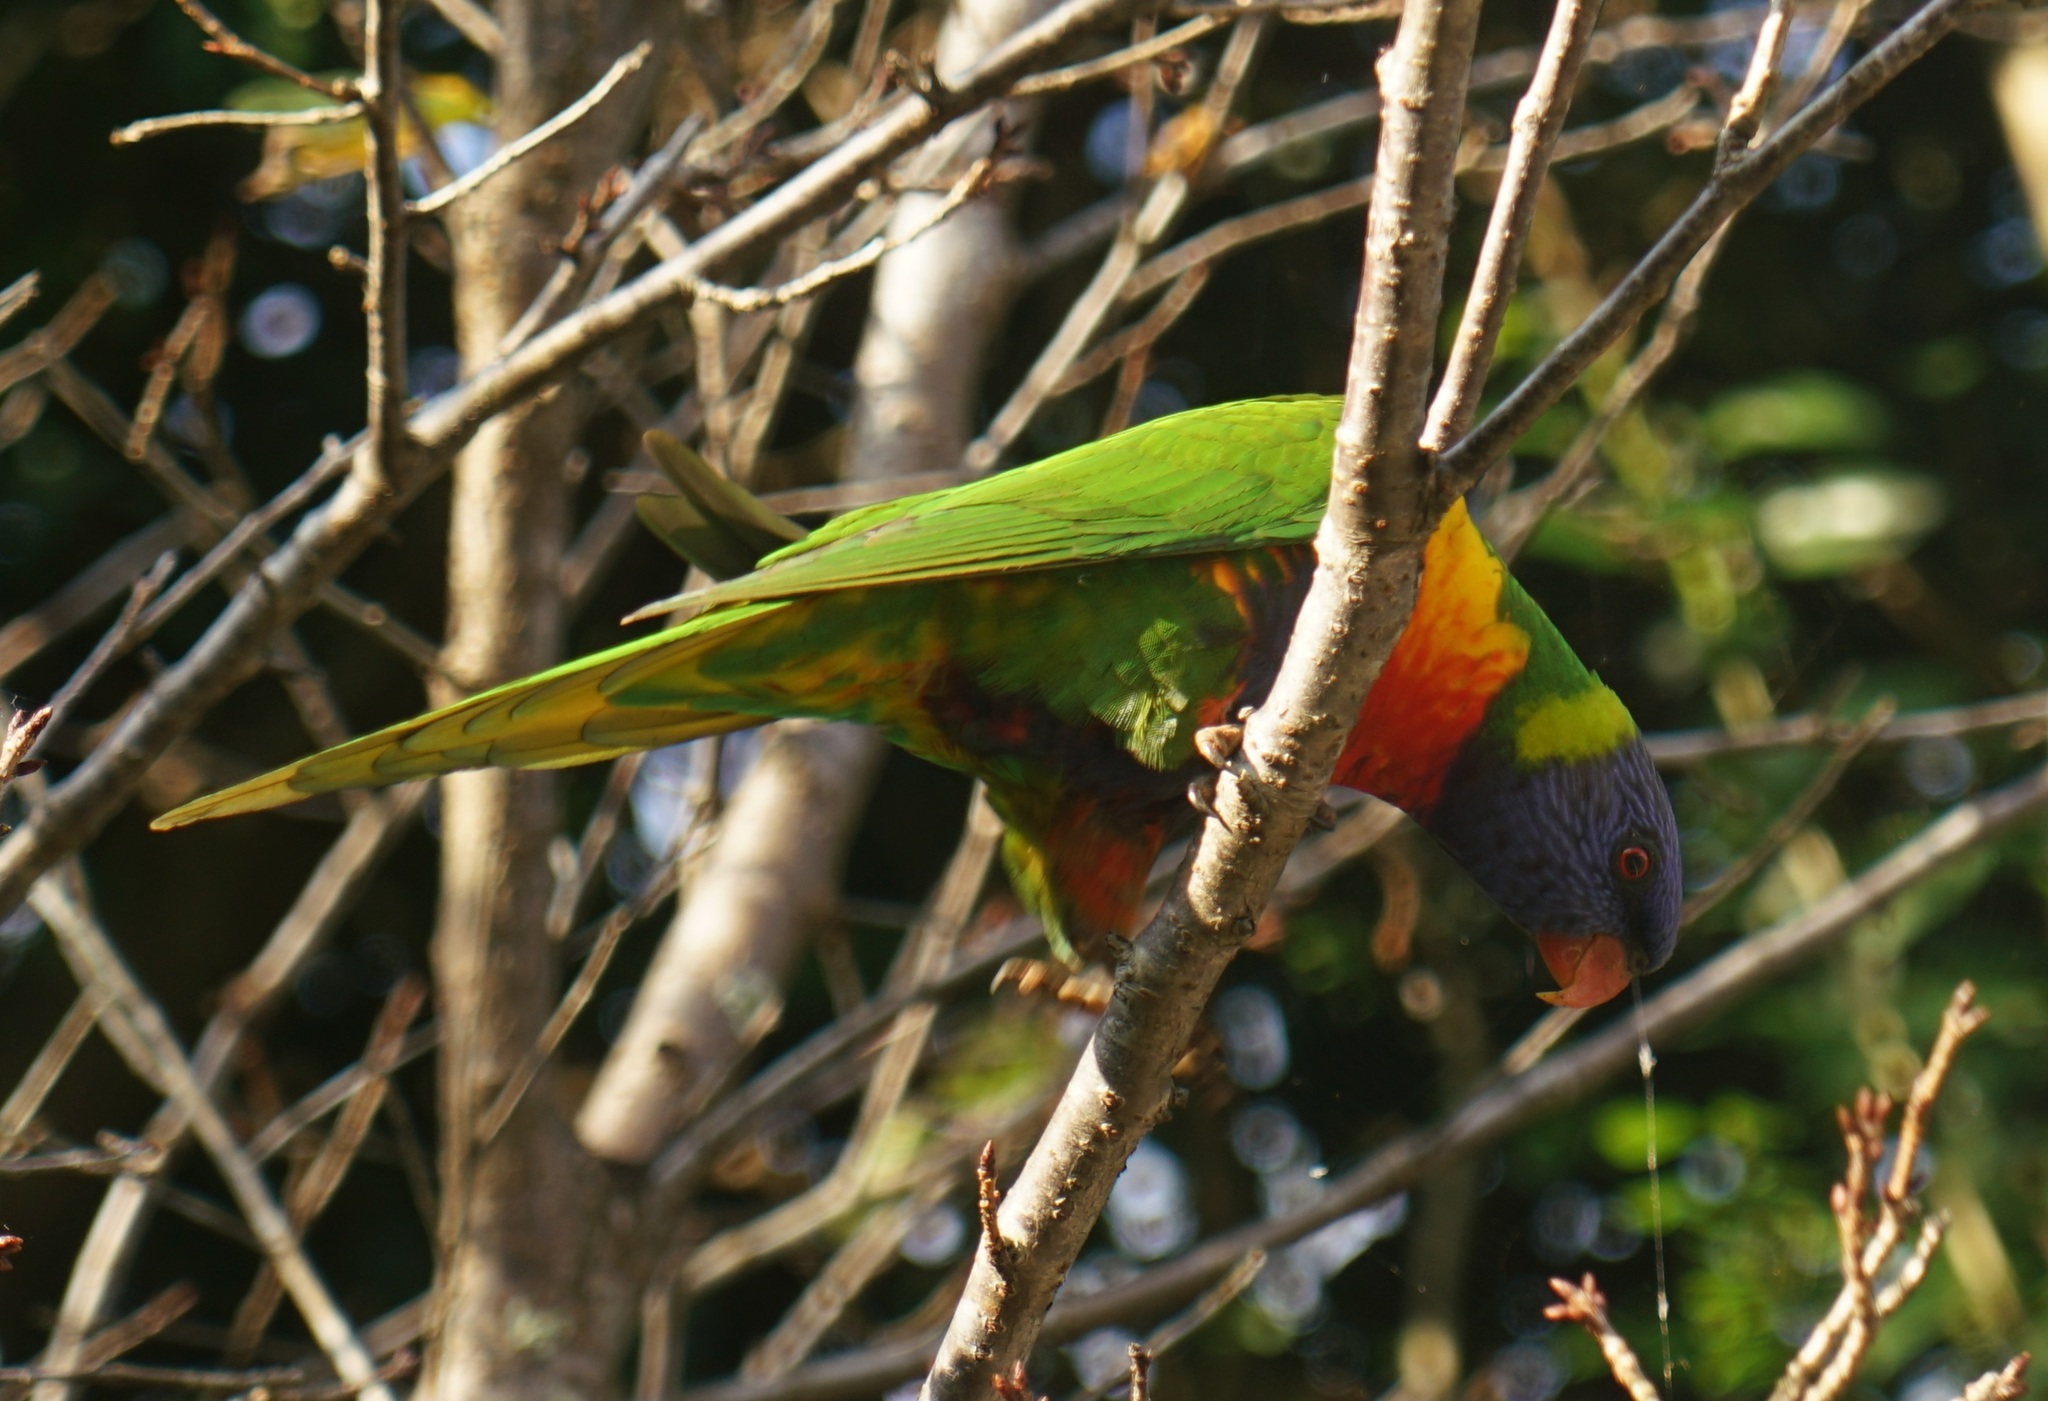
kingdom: Animalia
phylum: Chordata
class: Aves
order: Psittaciformes
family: Psittacidae
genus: Trichoglossus
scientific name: Trichoglossus haematodus
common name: Coconut lorikeet
